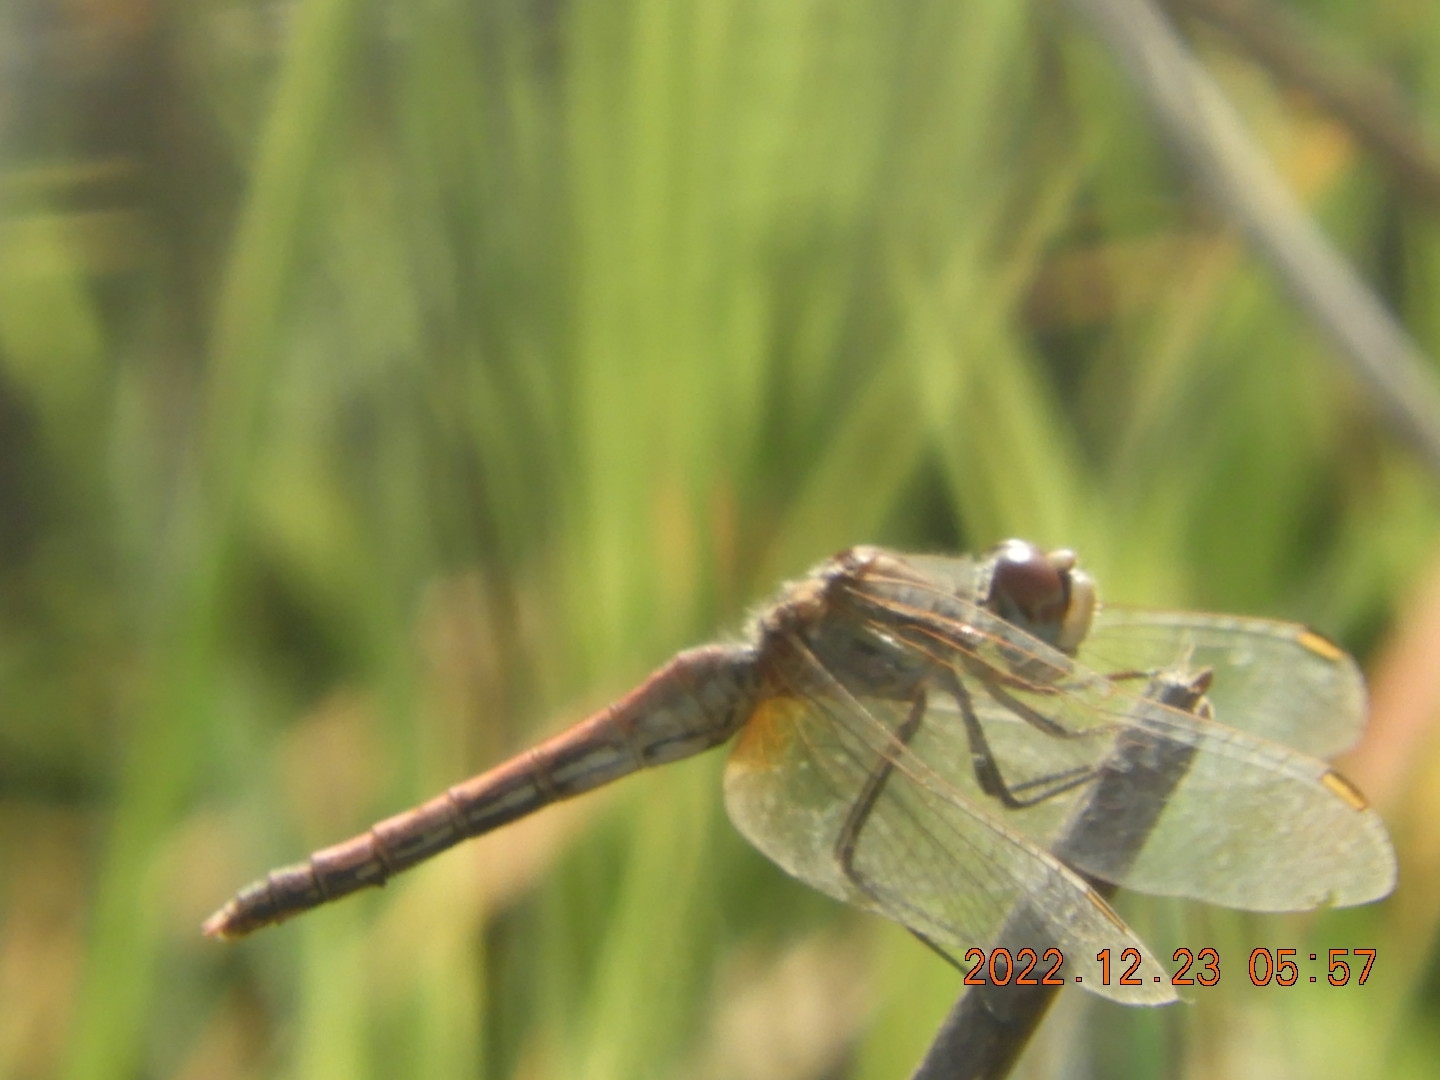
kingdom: Animalia
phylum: Arthropoda
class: Insecta
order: Odonata
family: Libellulidae
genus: Sympetrum
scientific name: Sympetrum fonscolombii
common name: Red-veined darter
